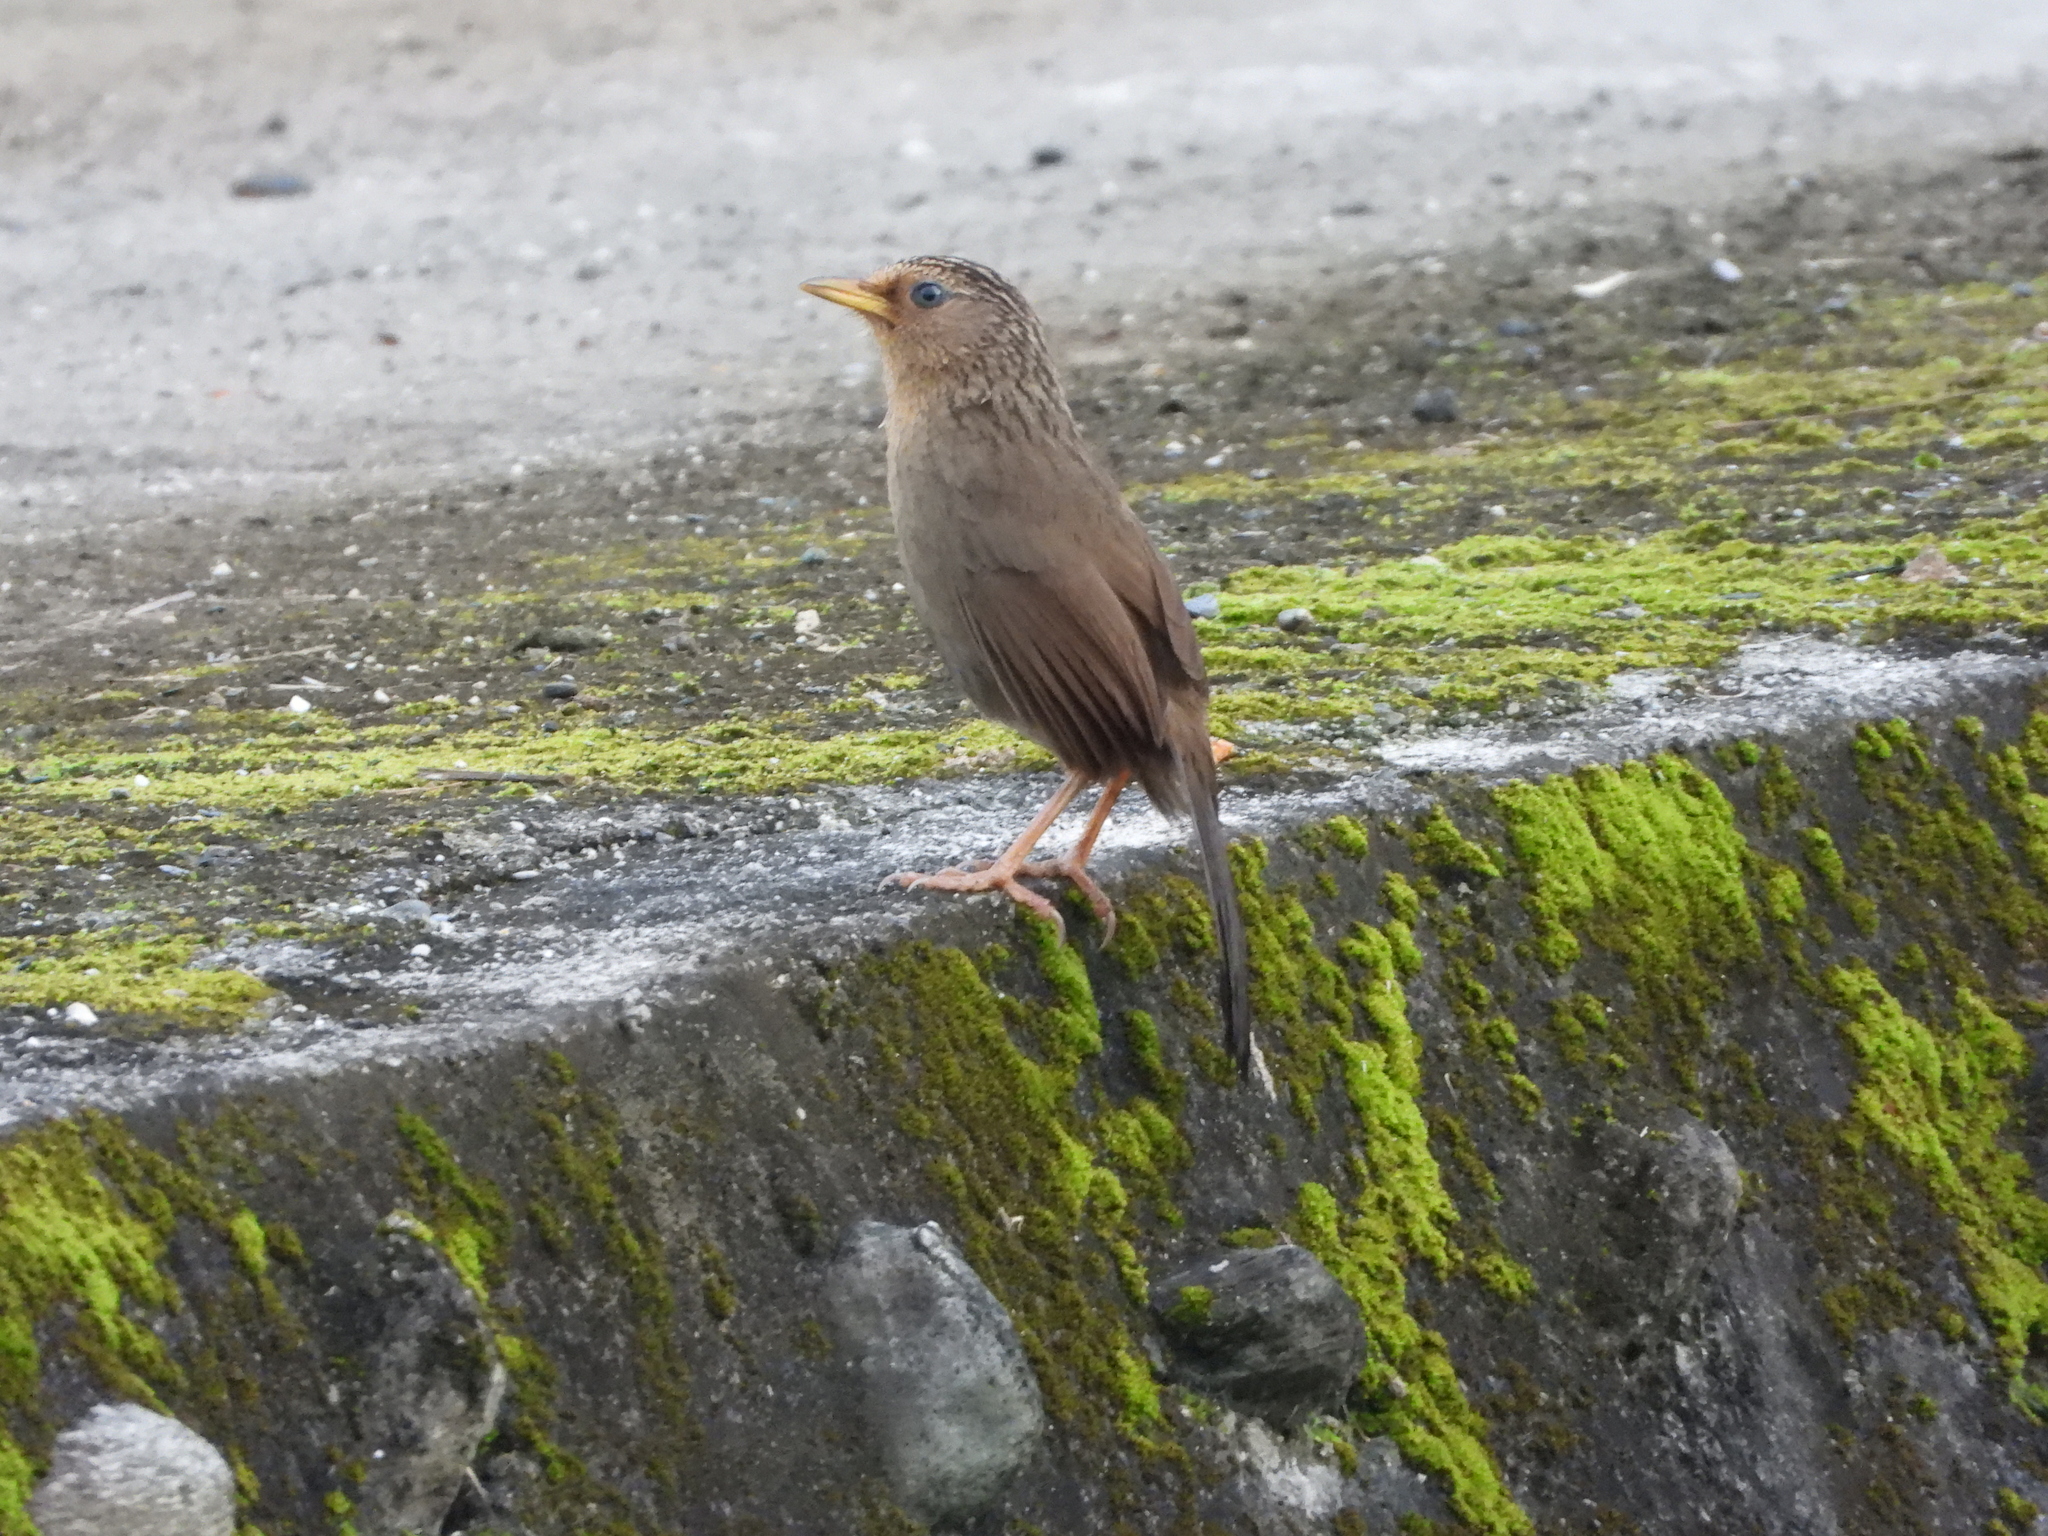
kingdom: Animalia
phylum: Chordata
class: Aves
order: Passeriformes
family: Leiothrichidae
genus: Garrulax
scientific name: Garrulax taewanus
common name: Taiwan hwamei
